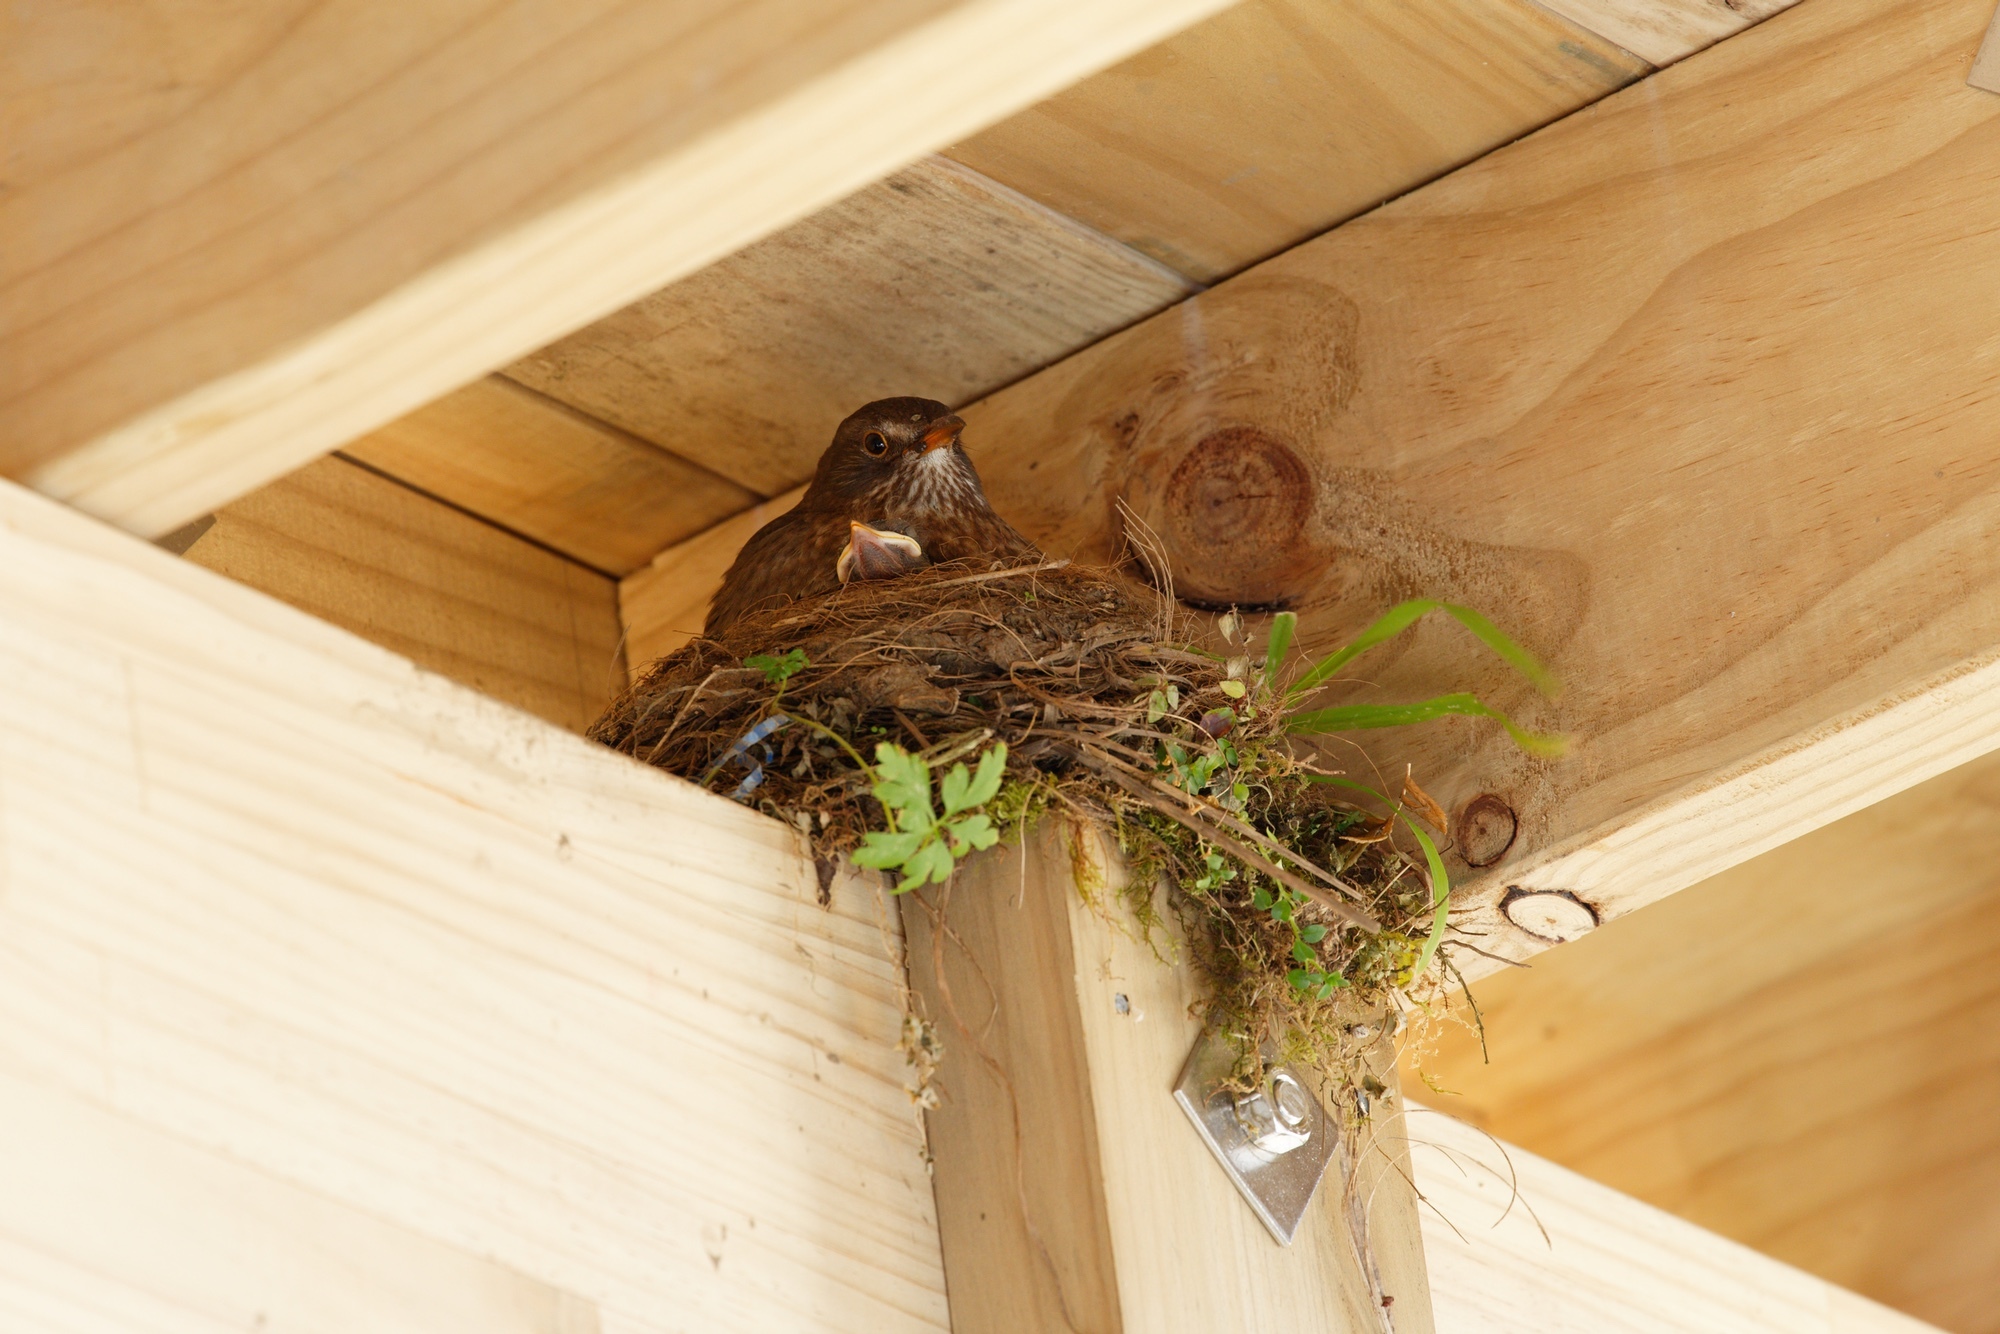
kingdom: Animalia
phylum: Chordata
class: Aves
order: Passeriformes
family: Turdidae
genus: Turdus
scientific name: Turdus merula
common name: Common blackbird
